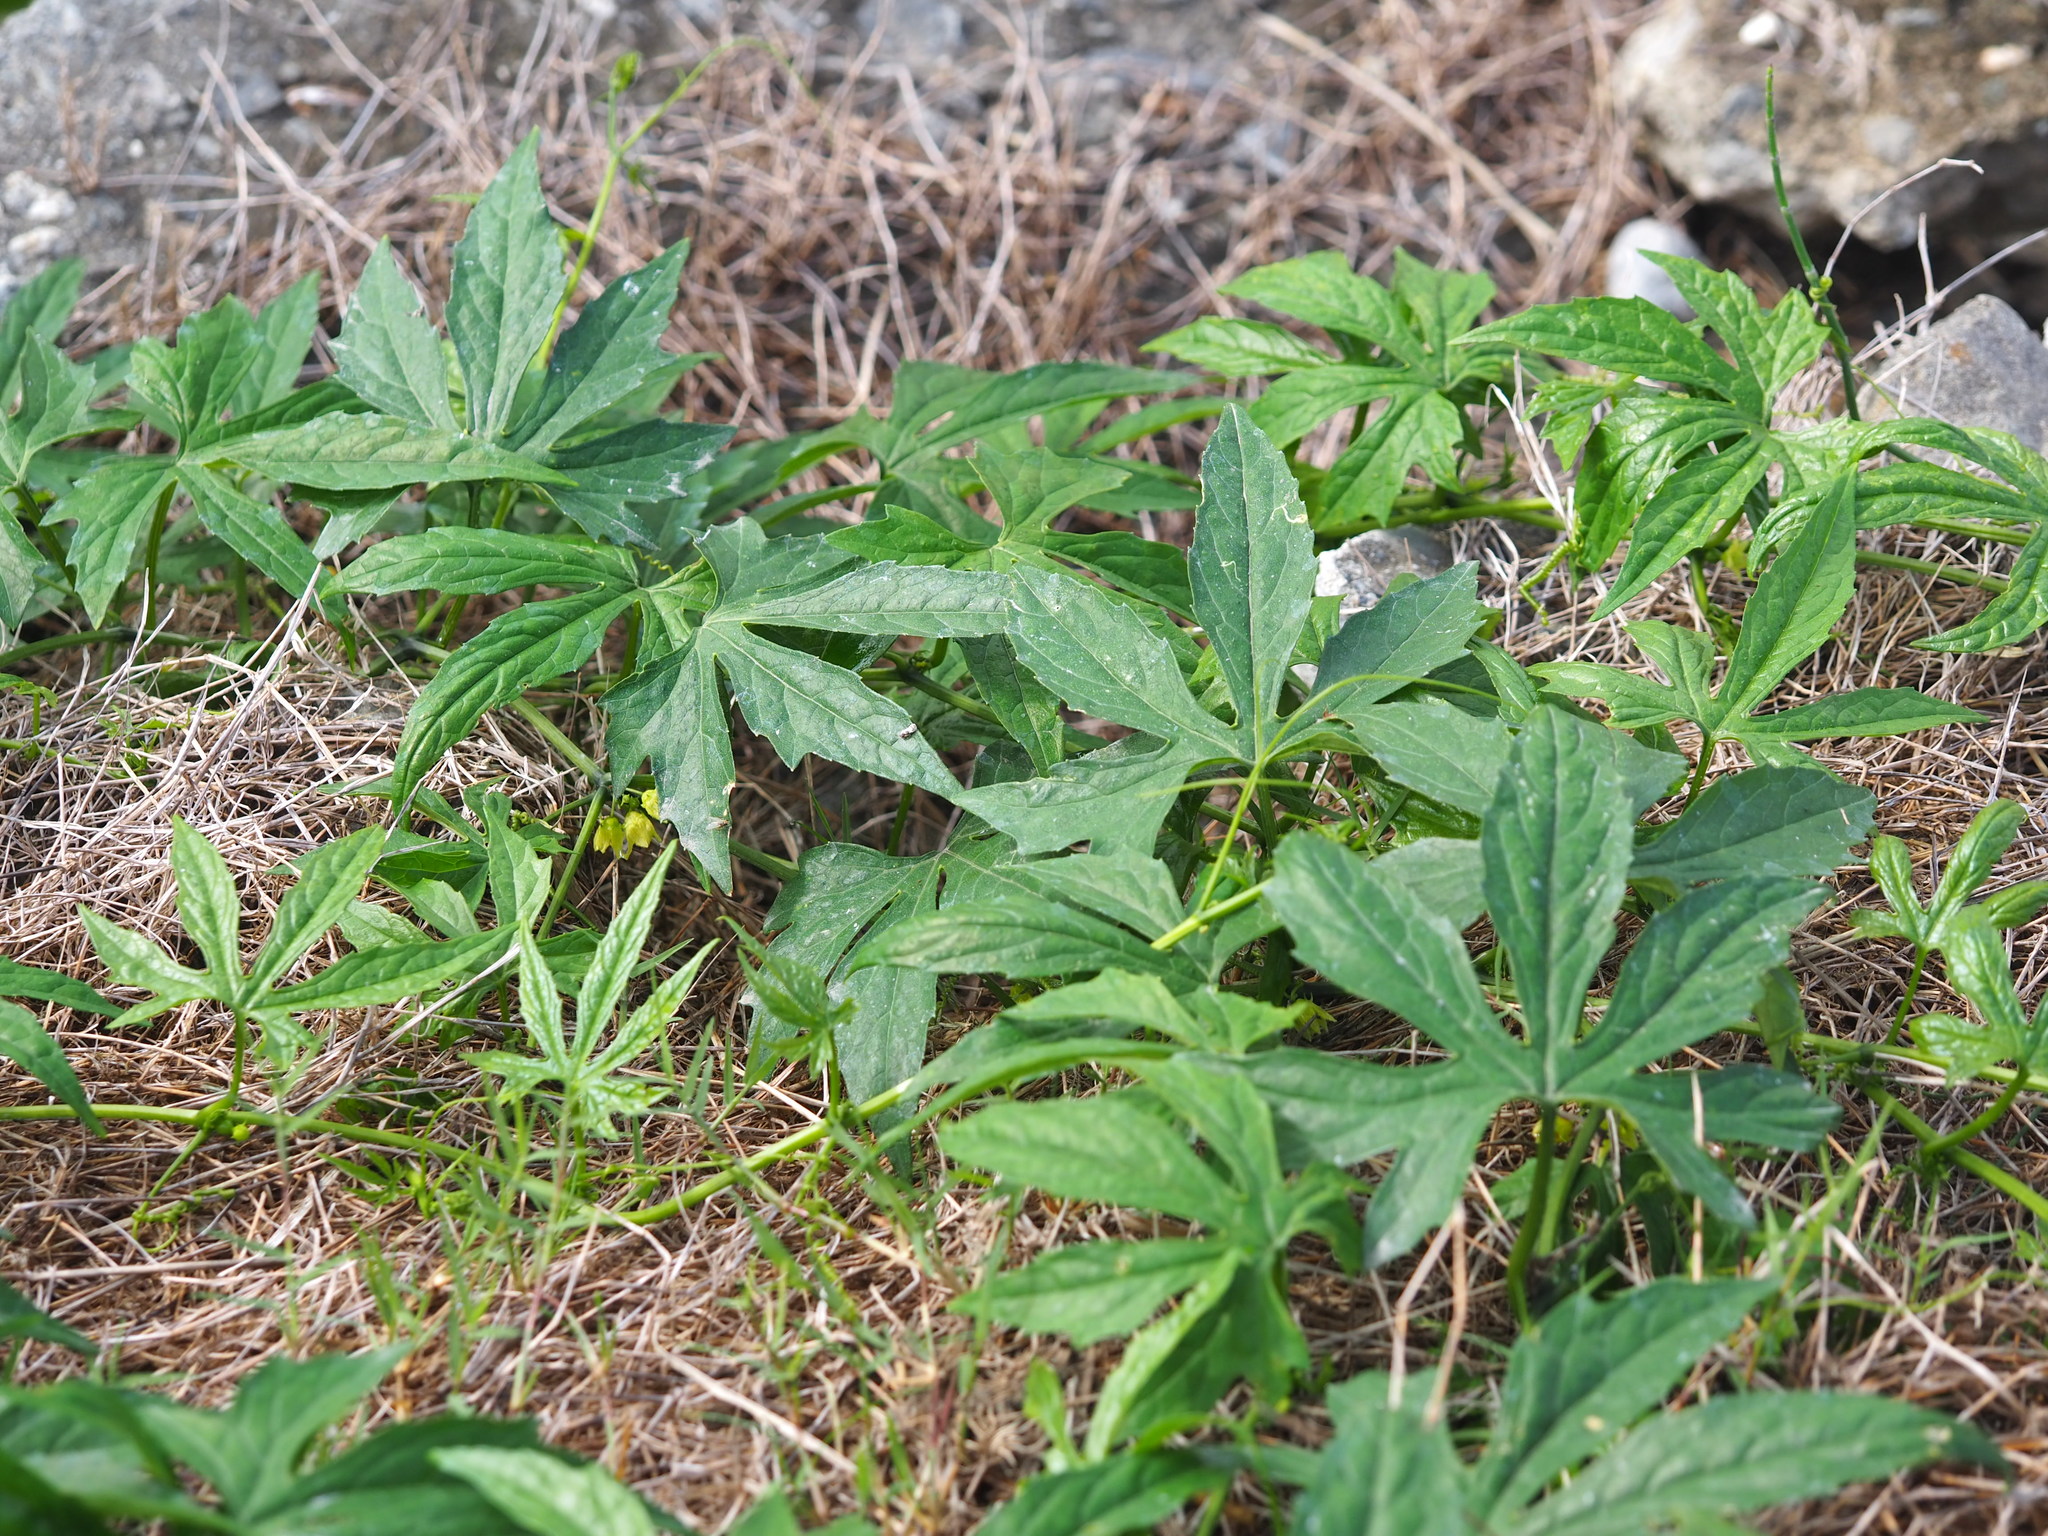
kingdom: Plantae
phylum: Tracheophyta
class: Magnoliopsida
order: Cucurbitales
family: Cucurbitaceae
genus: Diplocyclos
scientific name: Diplocyclos palmatus
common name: Striped-cucumber
